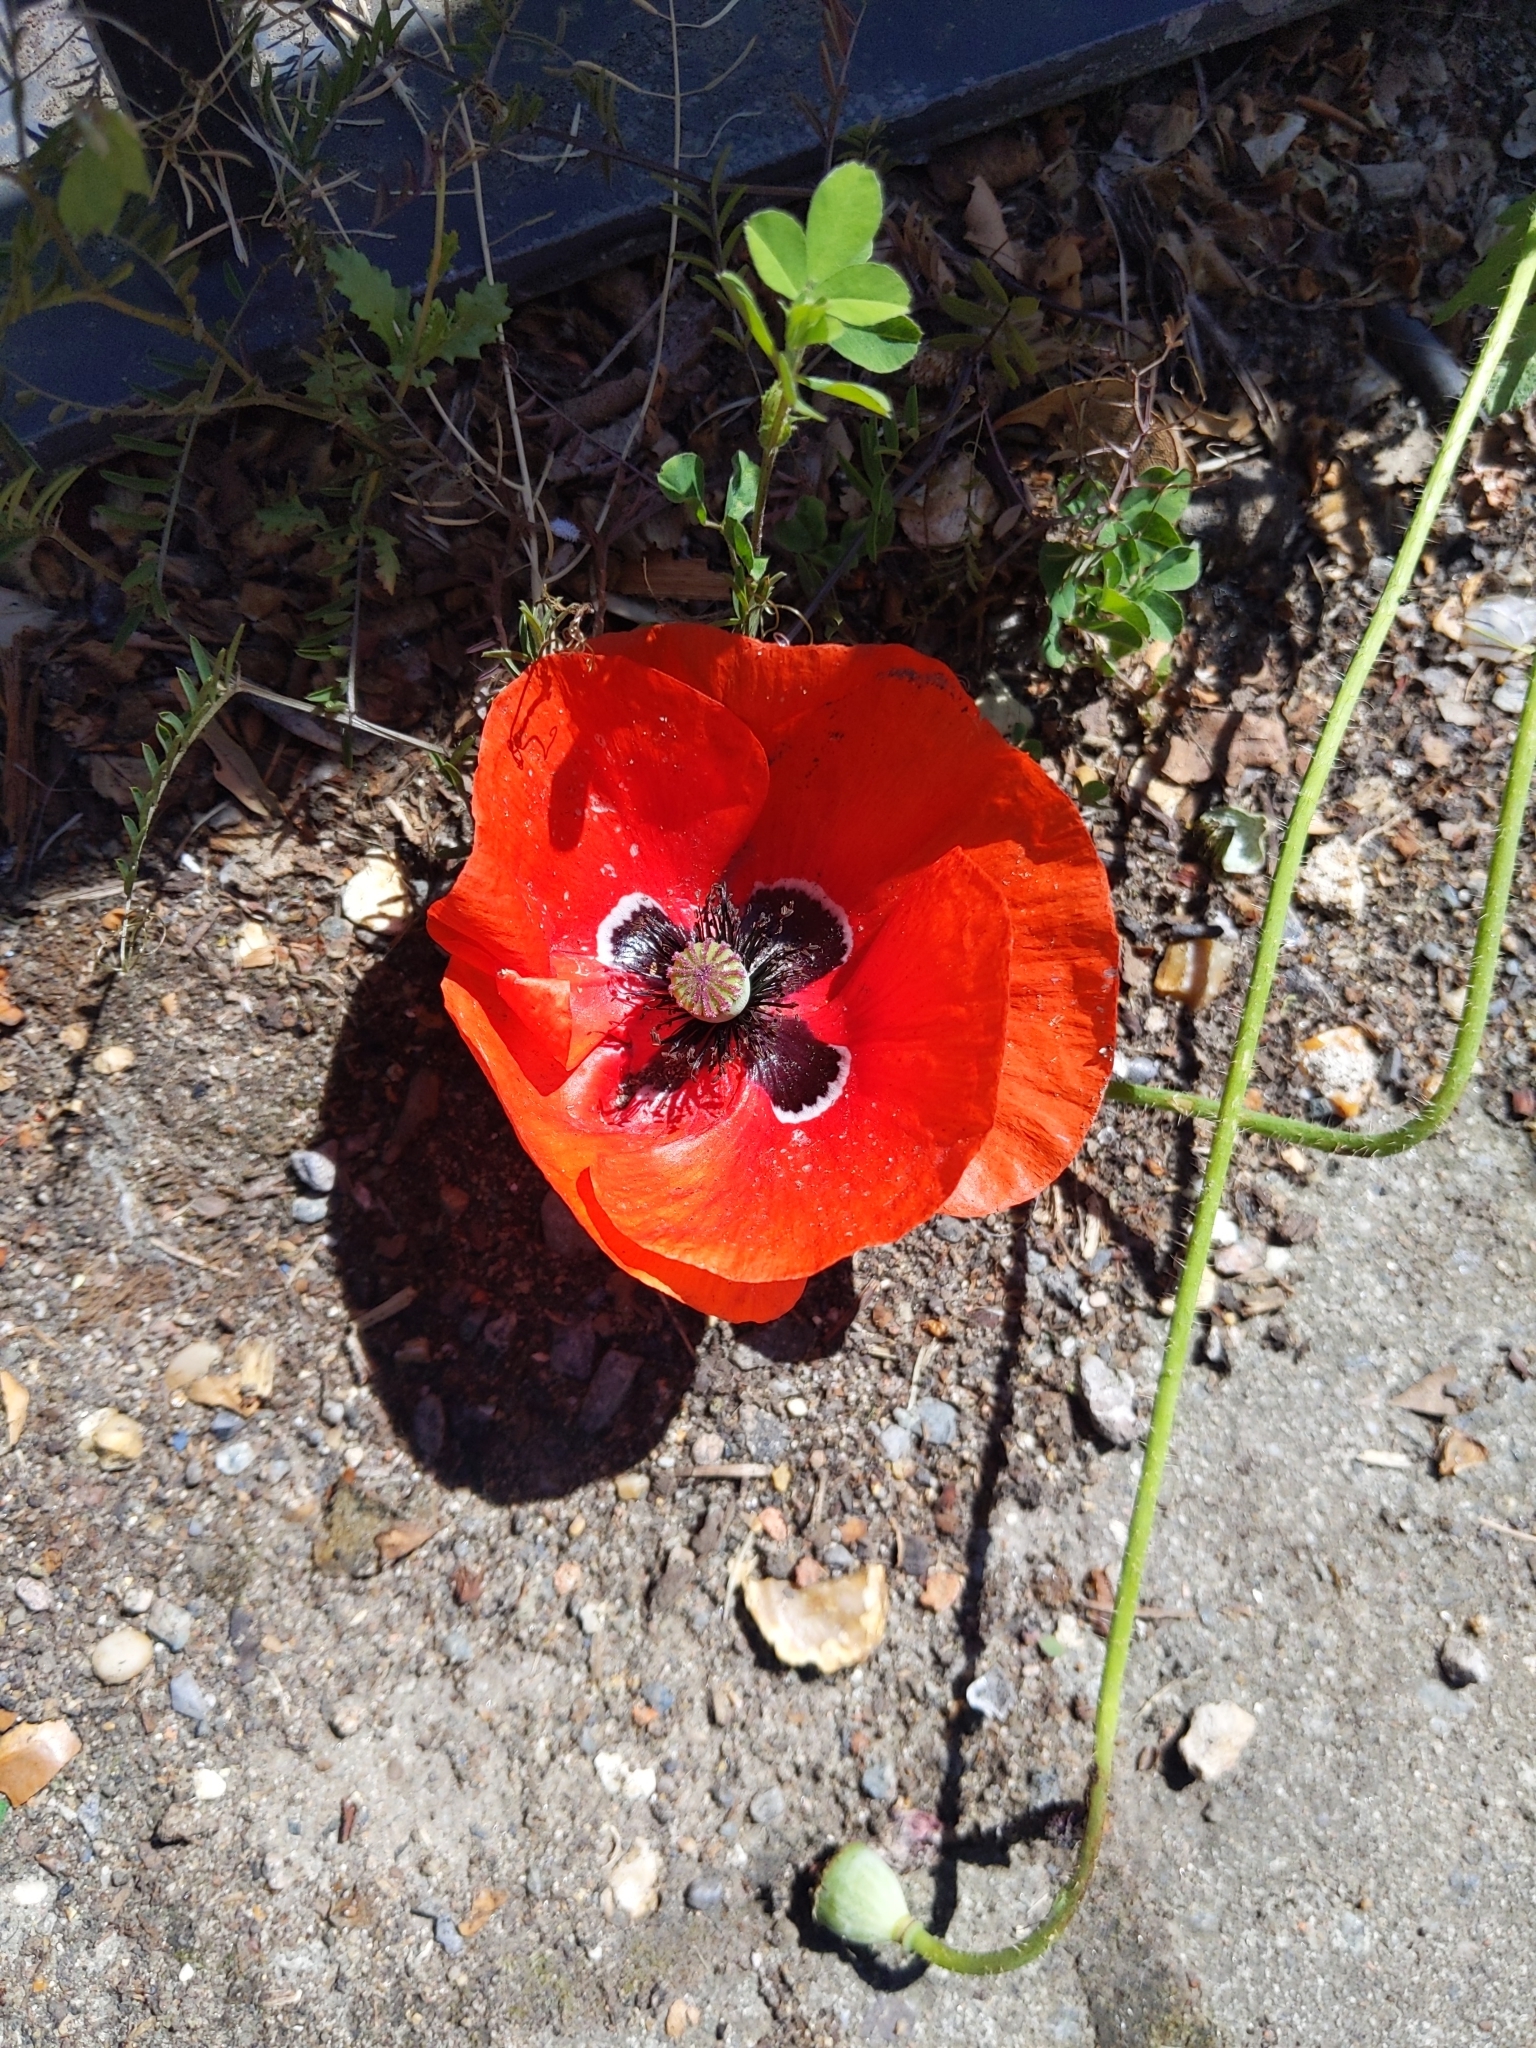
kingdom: Plantae
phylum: Tracheophyta
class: Magnoliopsida
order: Ranunculales
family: Papaveraceae
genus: Papaver
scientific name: Papaver rhoeas
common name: Corn poppy
